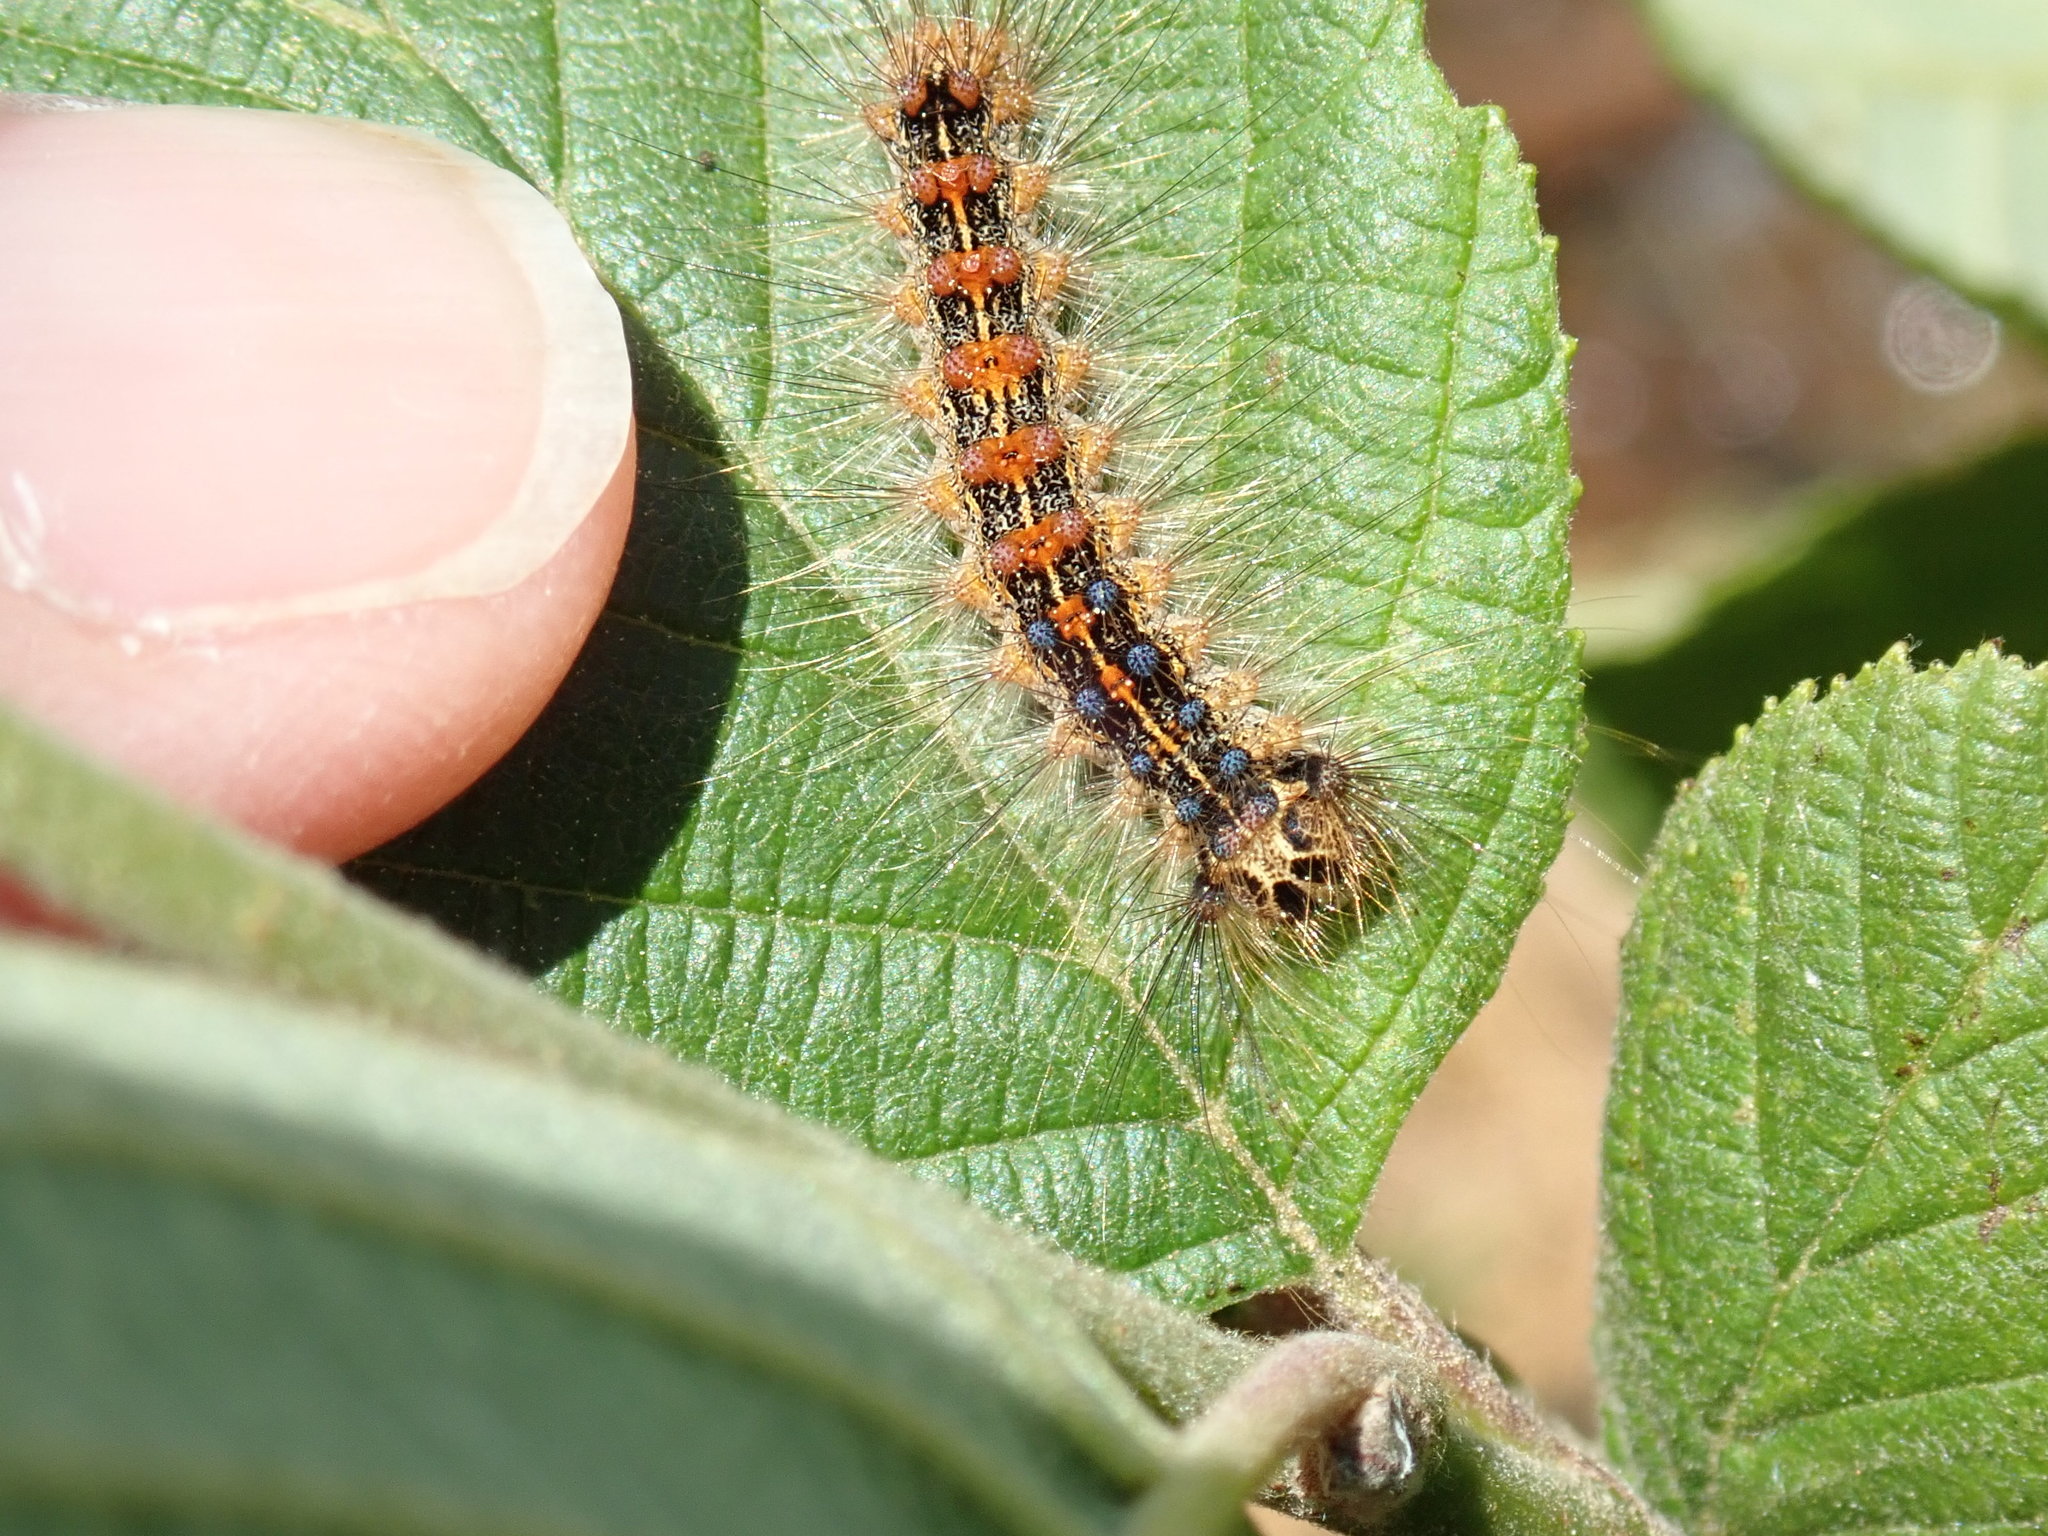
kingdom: Animalia
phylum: Arthropoda
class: Insecta
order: Lepidoptera
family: Erebidae
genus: Lymantria
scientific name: Lymantria dispar
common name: Gypsy moth
